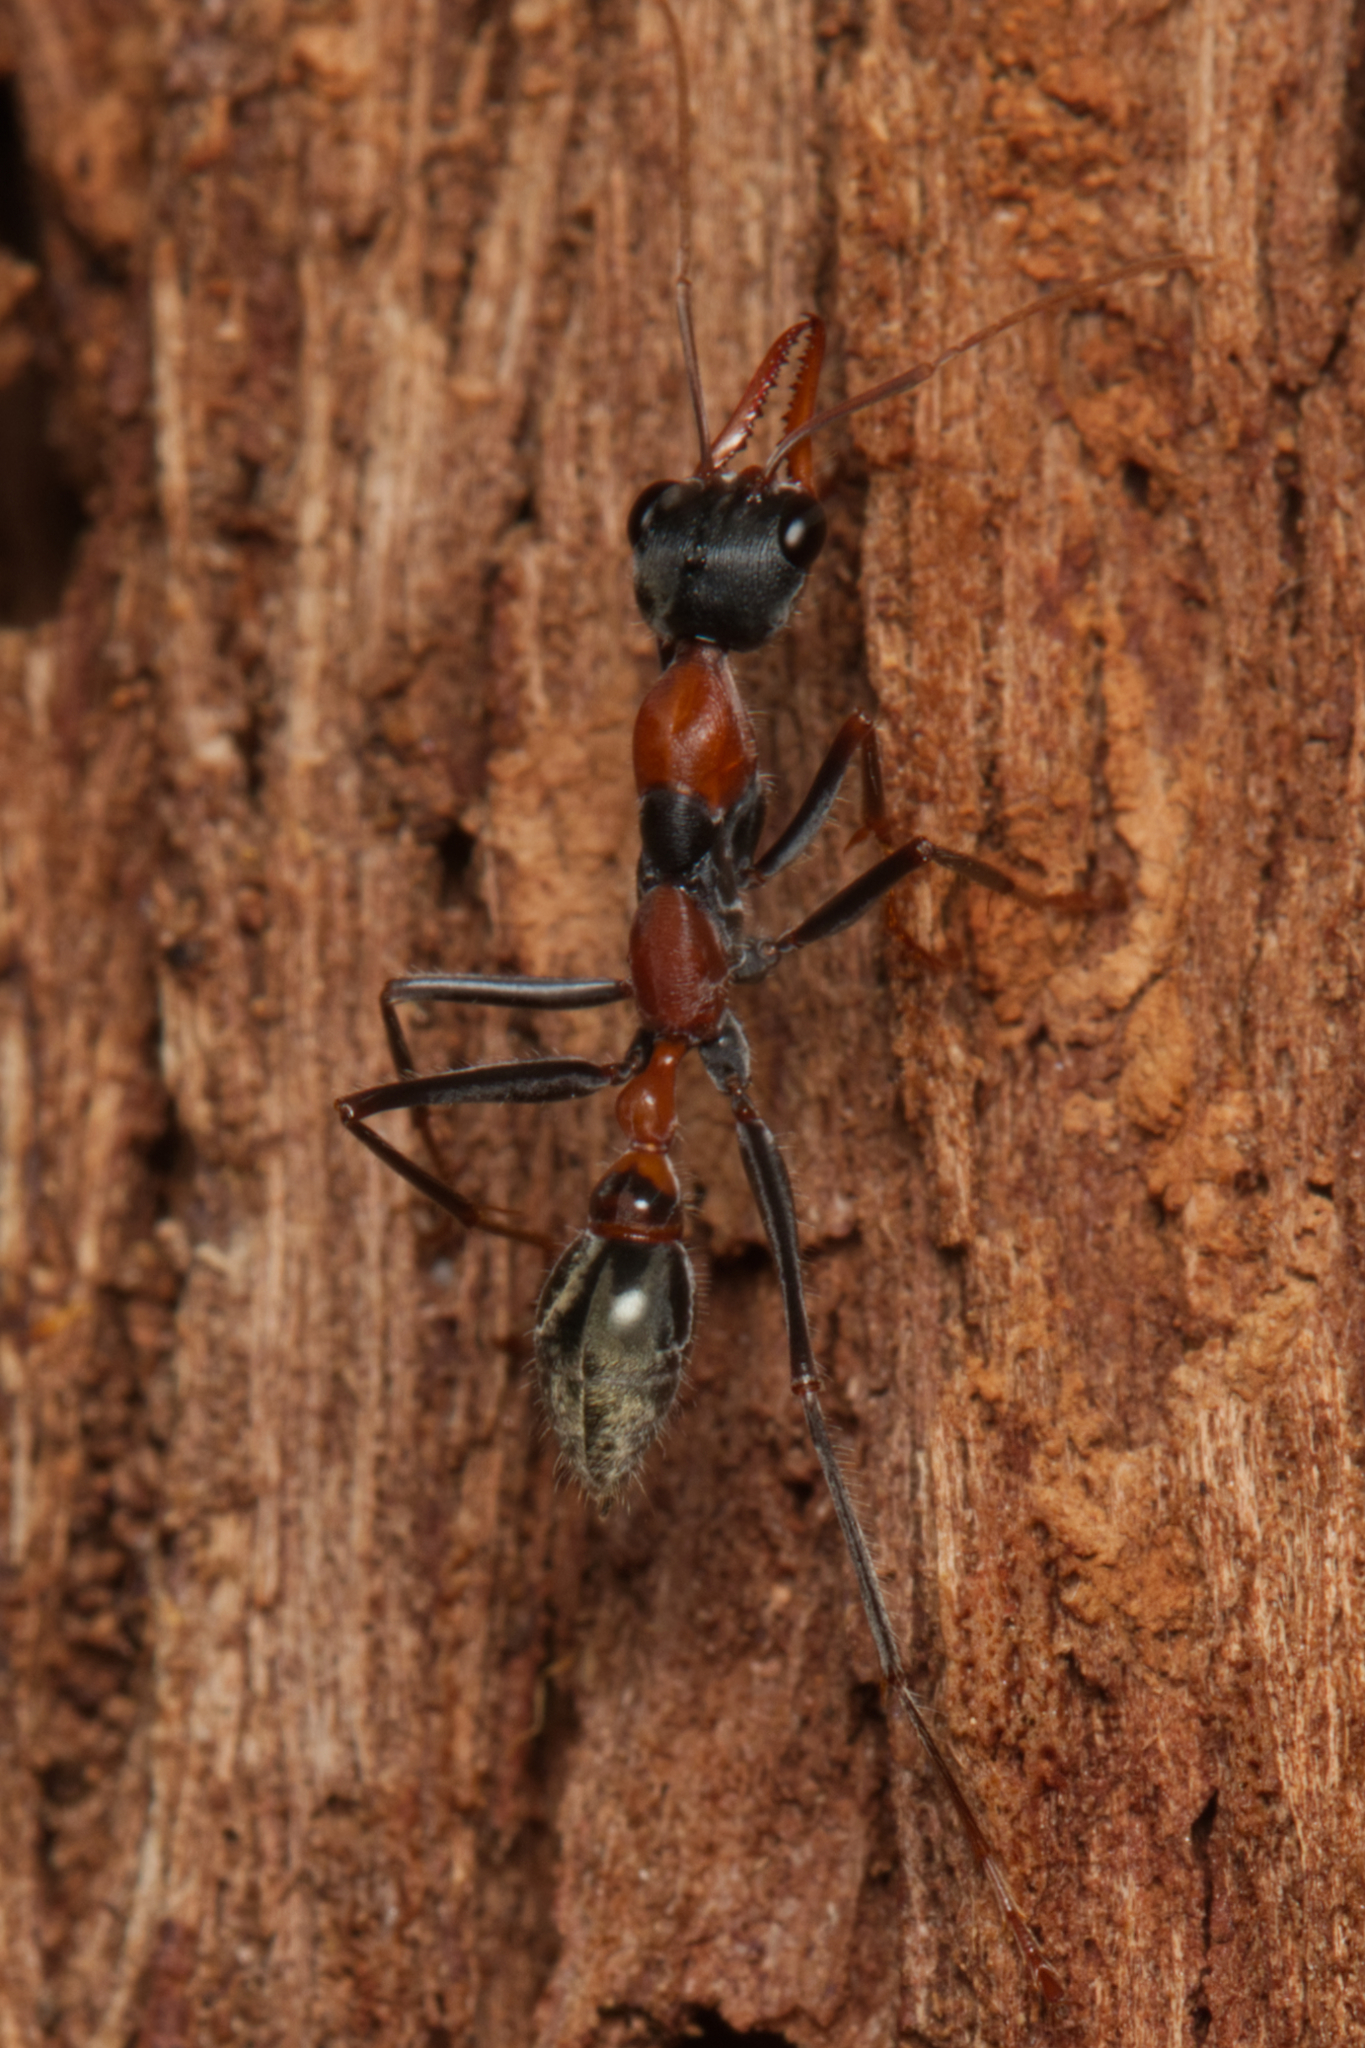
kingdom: Animalia
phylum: Arthropoda
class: Insecta
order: Hymenoptera
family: Formicidae
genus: Myrmecia
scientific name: Myrmecia nigrocincta
